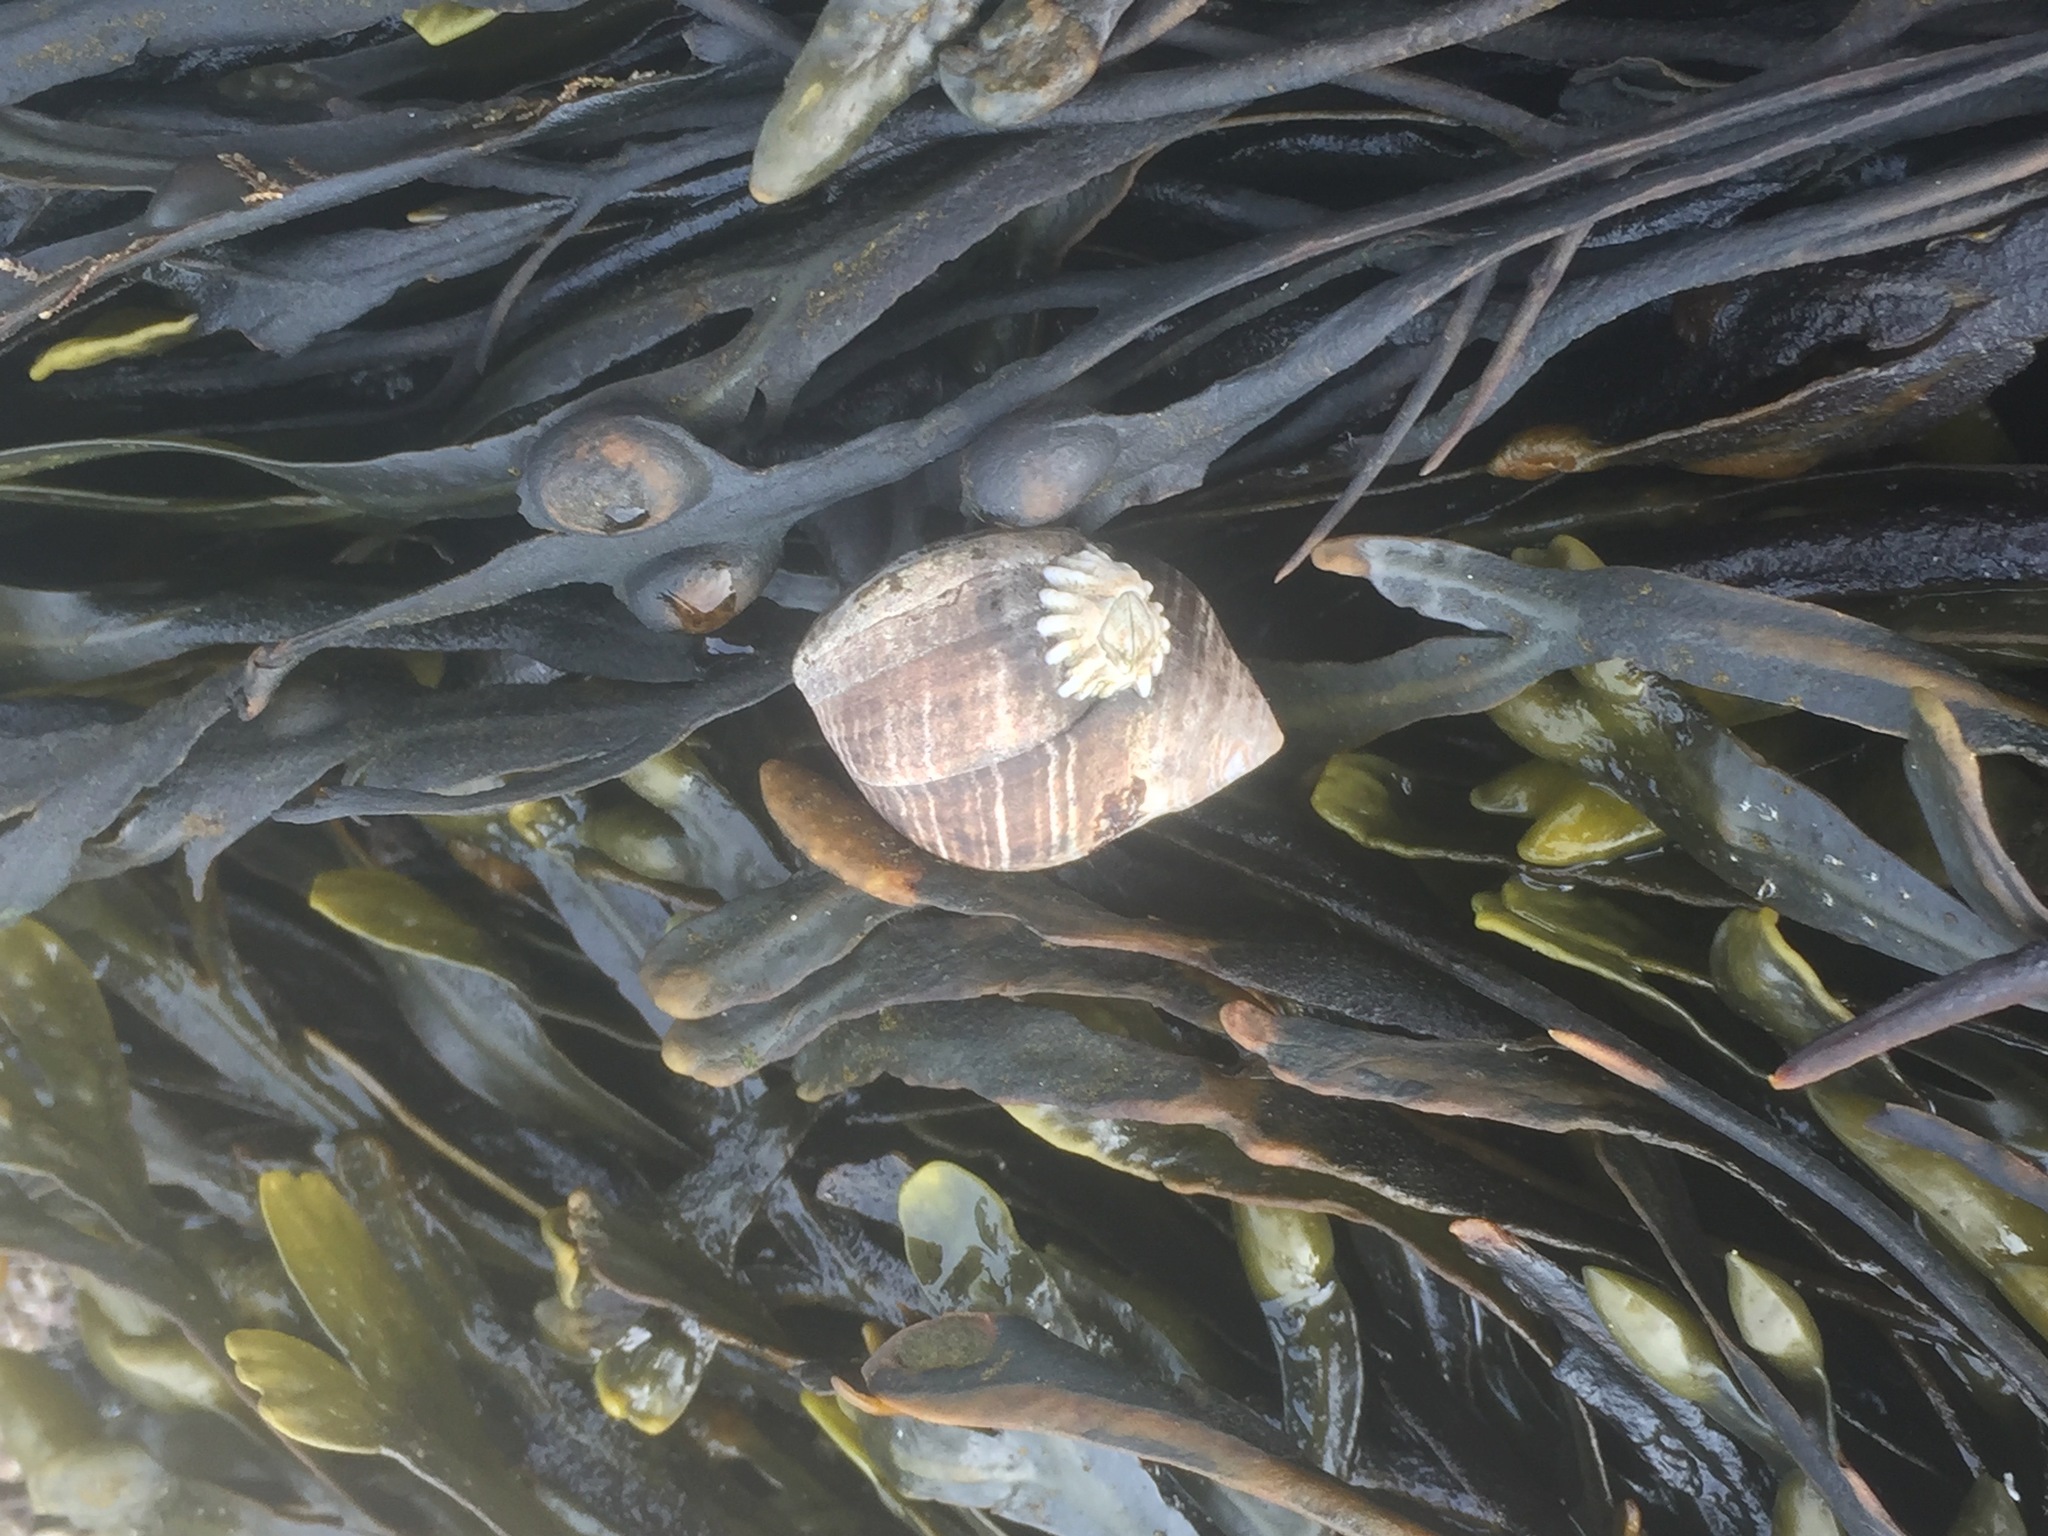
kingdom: Animalia
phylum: Arthropoda
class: Maxillopoda
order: Sessilia
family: Archaeobalanidae
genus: Semibalanus
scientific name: Semibalanus balanoides
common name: Acorn barnacle
